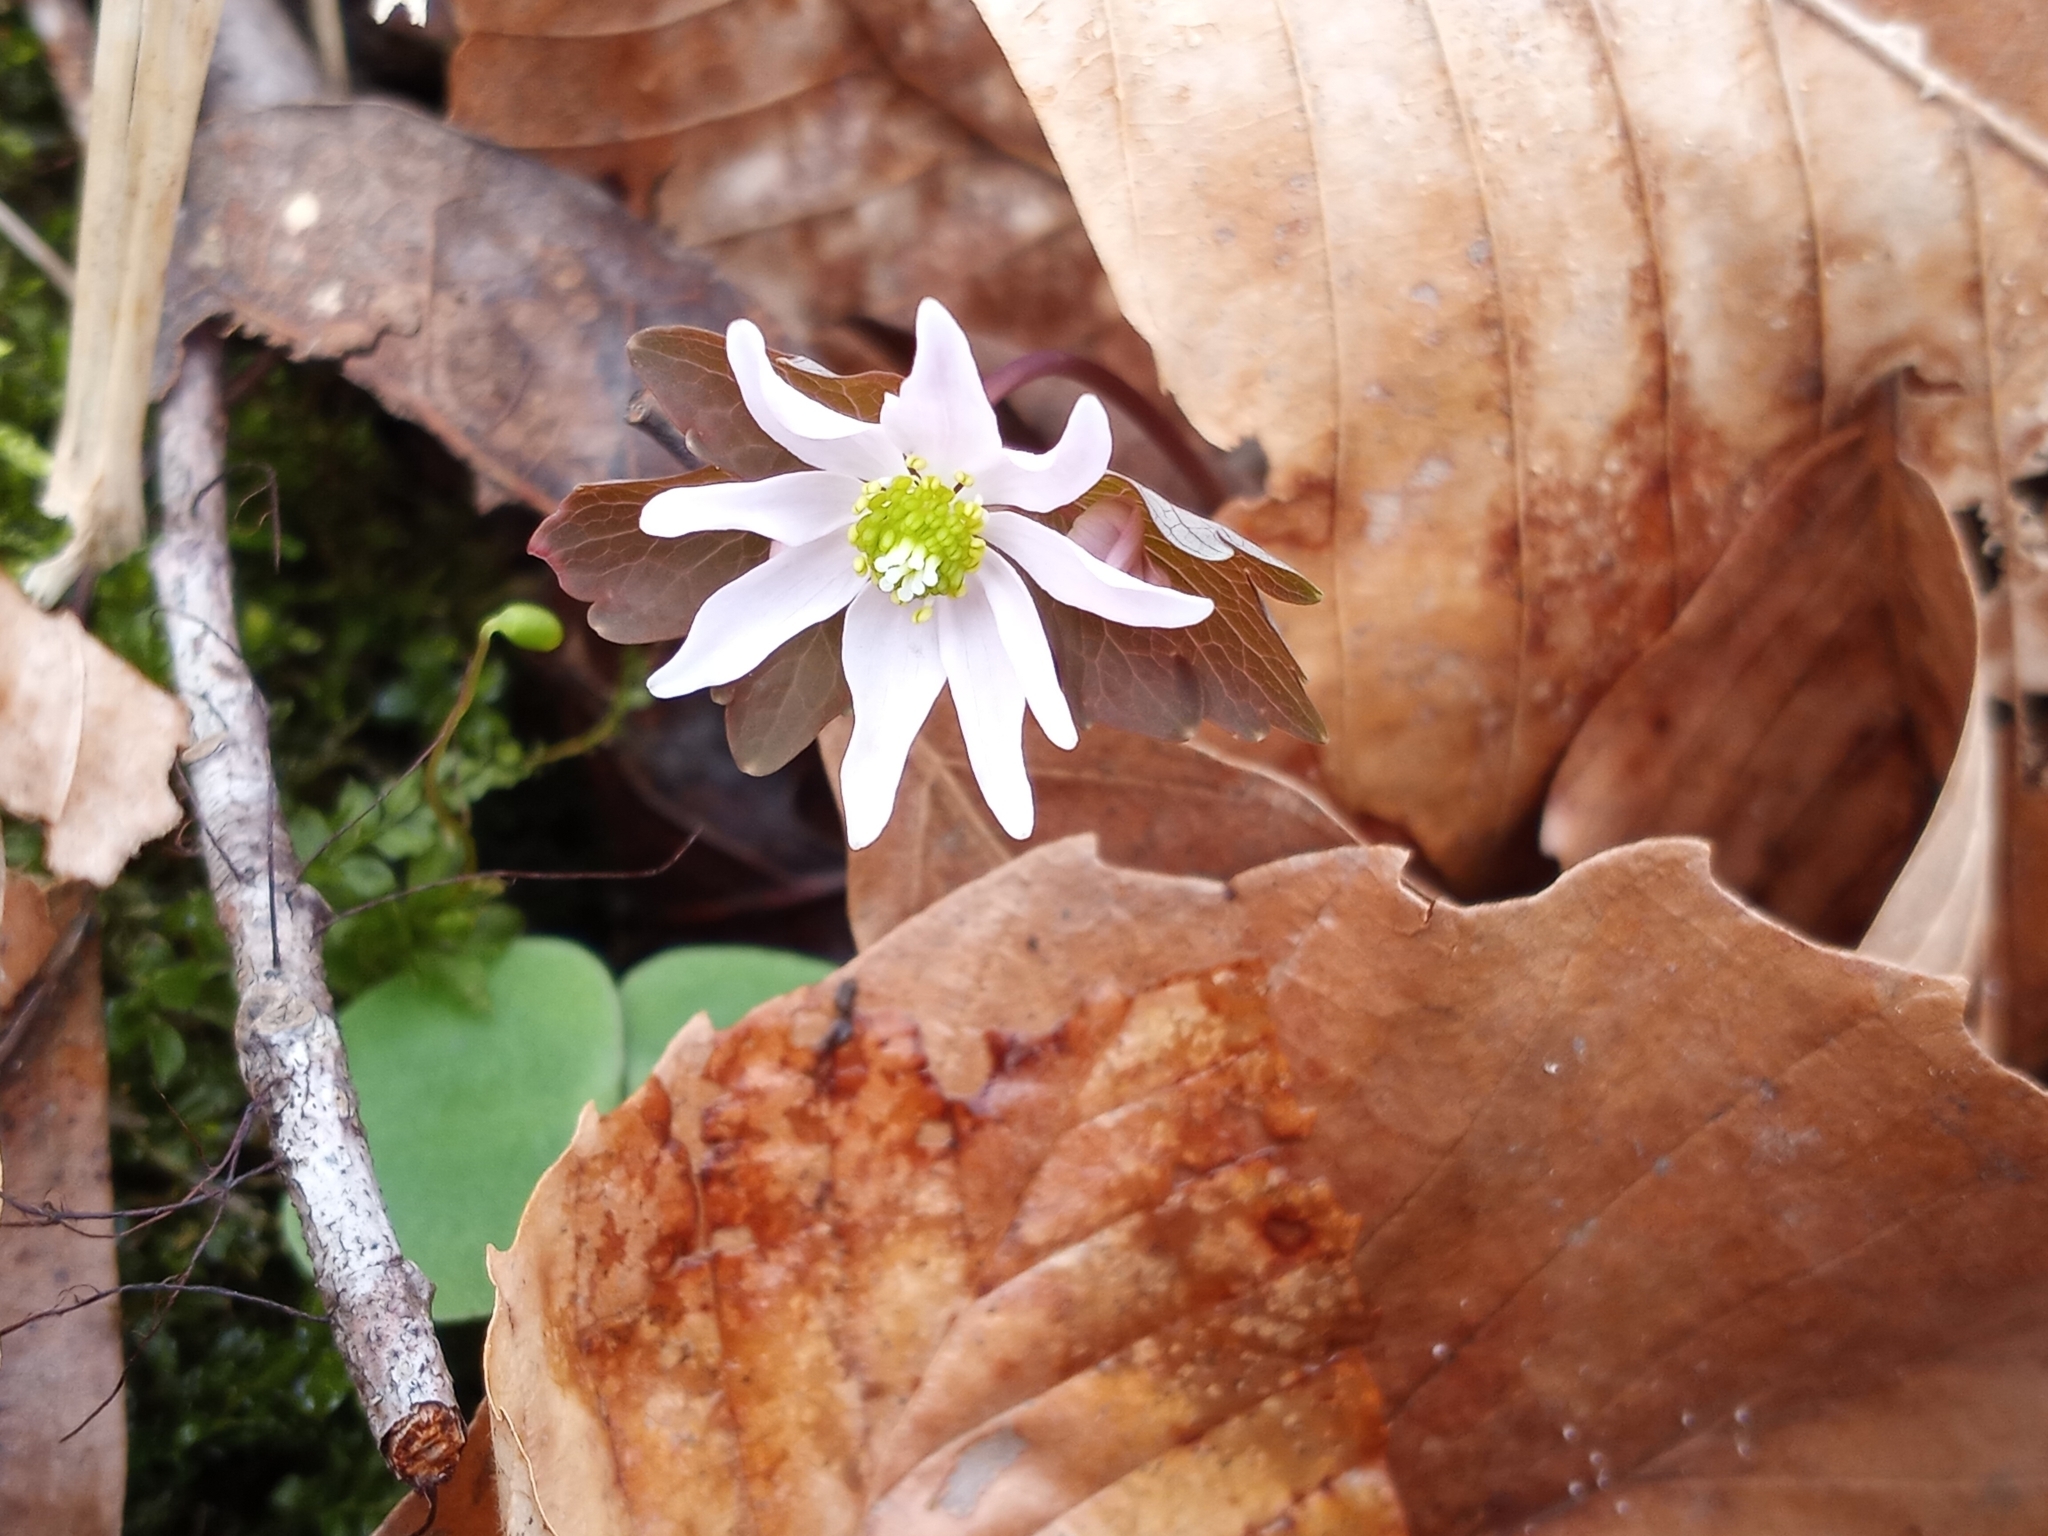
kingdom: Plantae
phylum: Tracheophyta
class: Magnoliopsida
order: Ranunculales
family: Ranunculaceae
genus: Thalictrum
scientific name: Thalictrum thalictroides
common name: Rue-anemone
